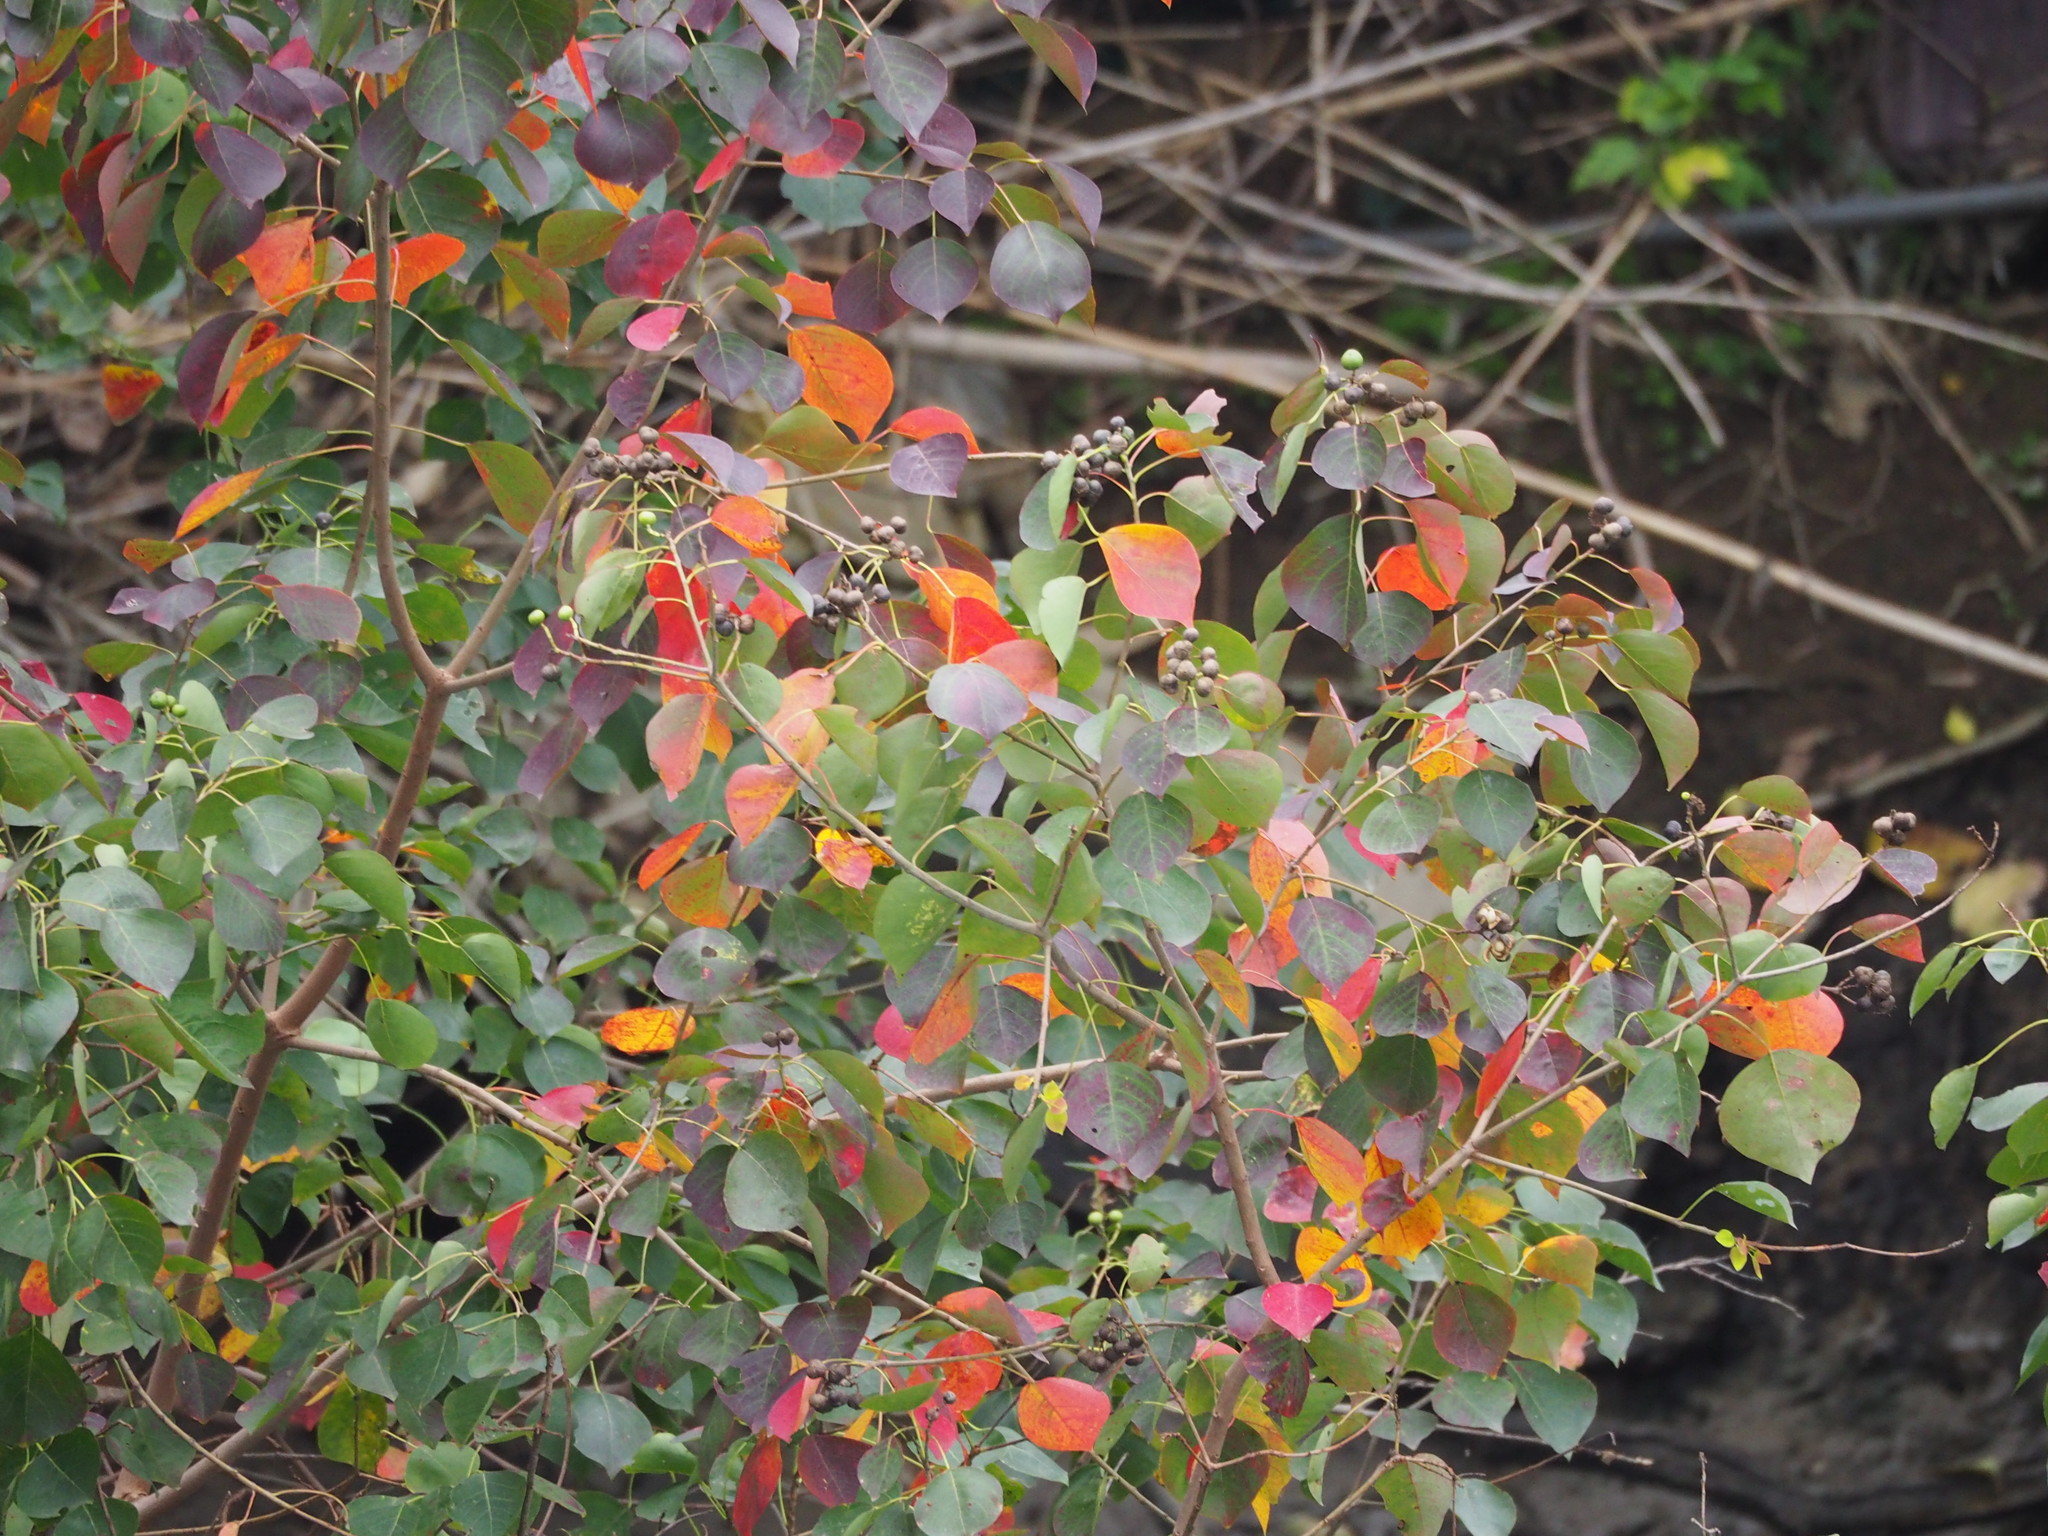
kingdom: Plantae
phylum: Tracheophyta
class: Magnoliopsida
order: Malpighiales
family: Euphorbiaceae
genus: Triadica
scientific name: Triadica sebifera
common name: Chinese tallow
